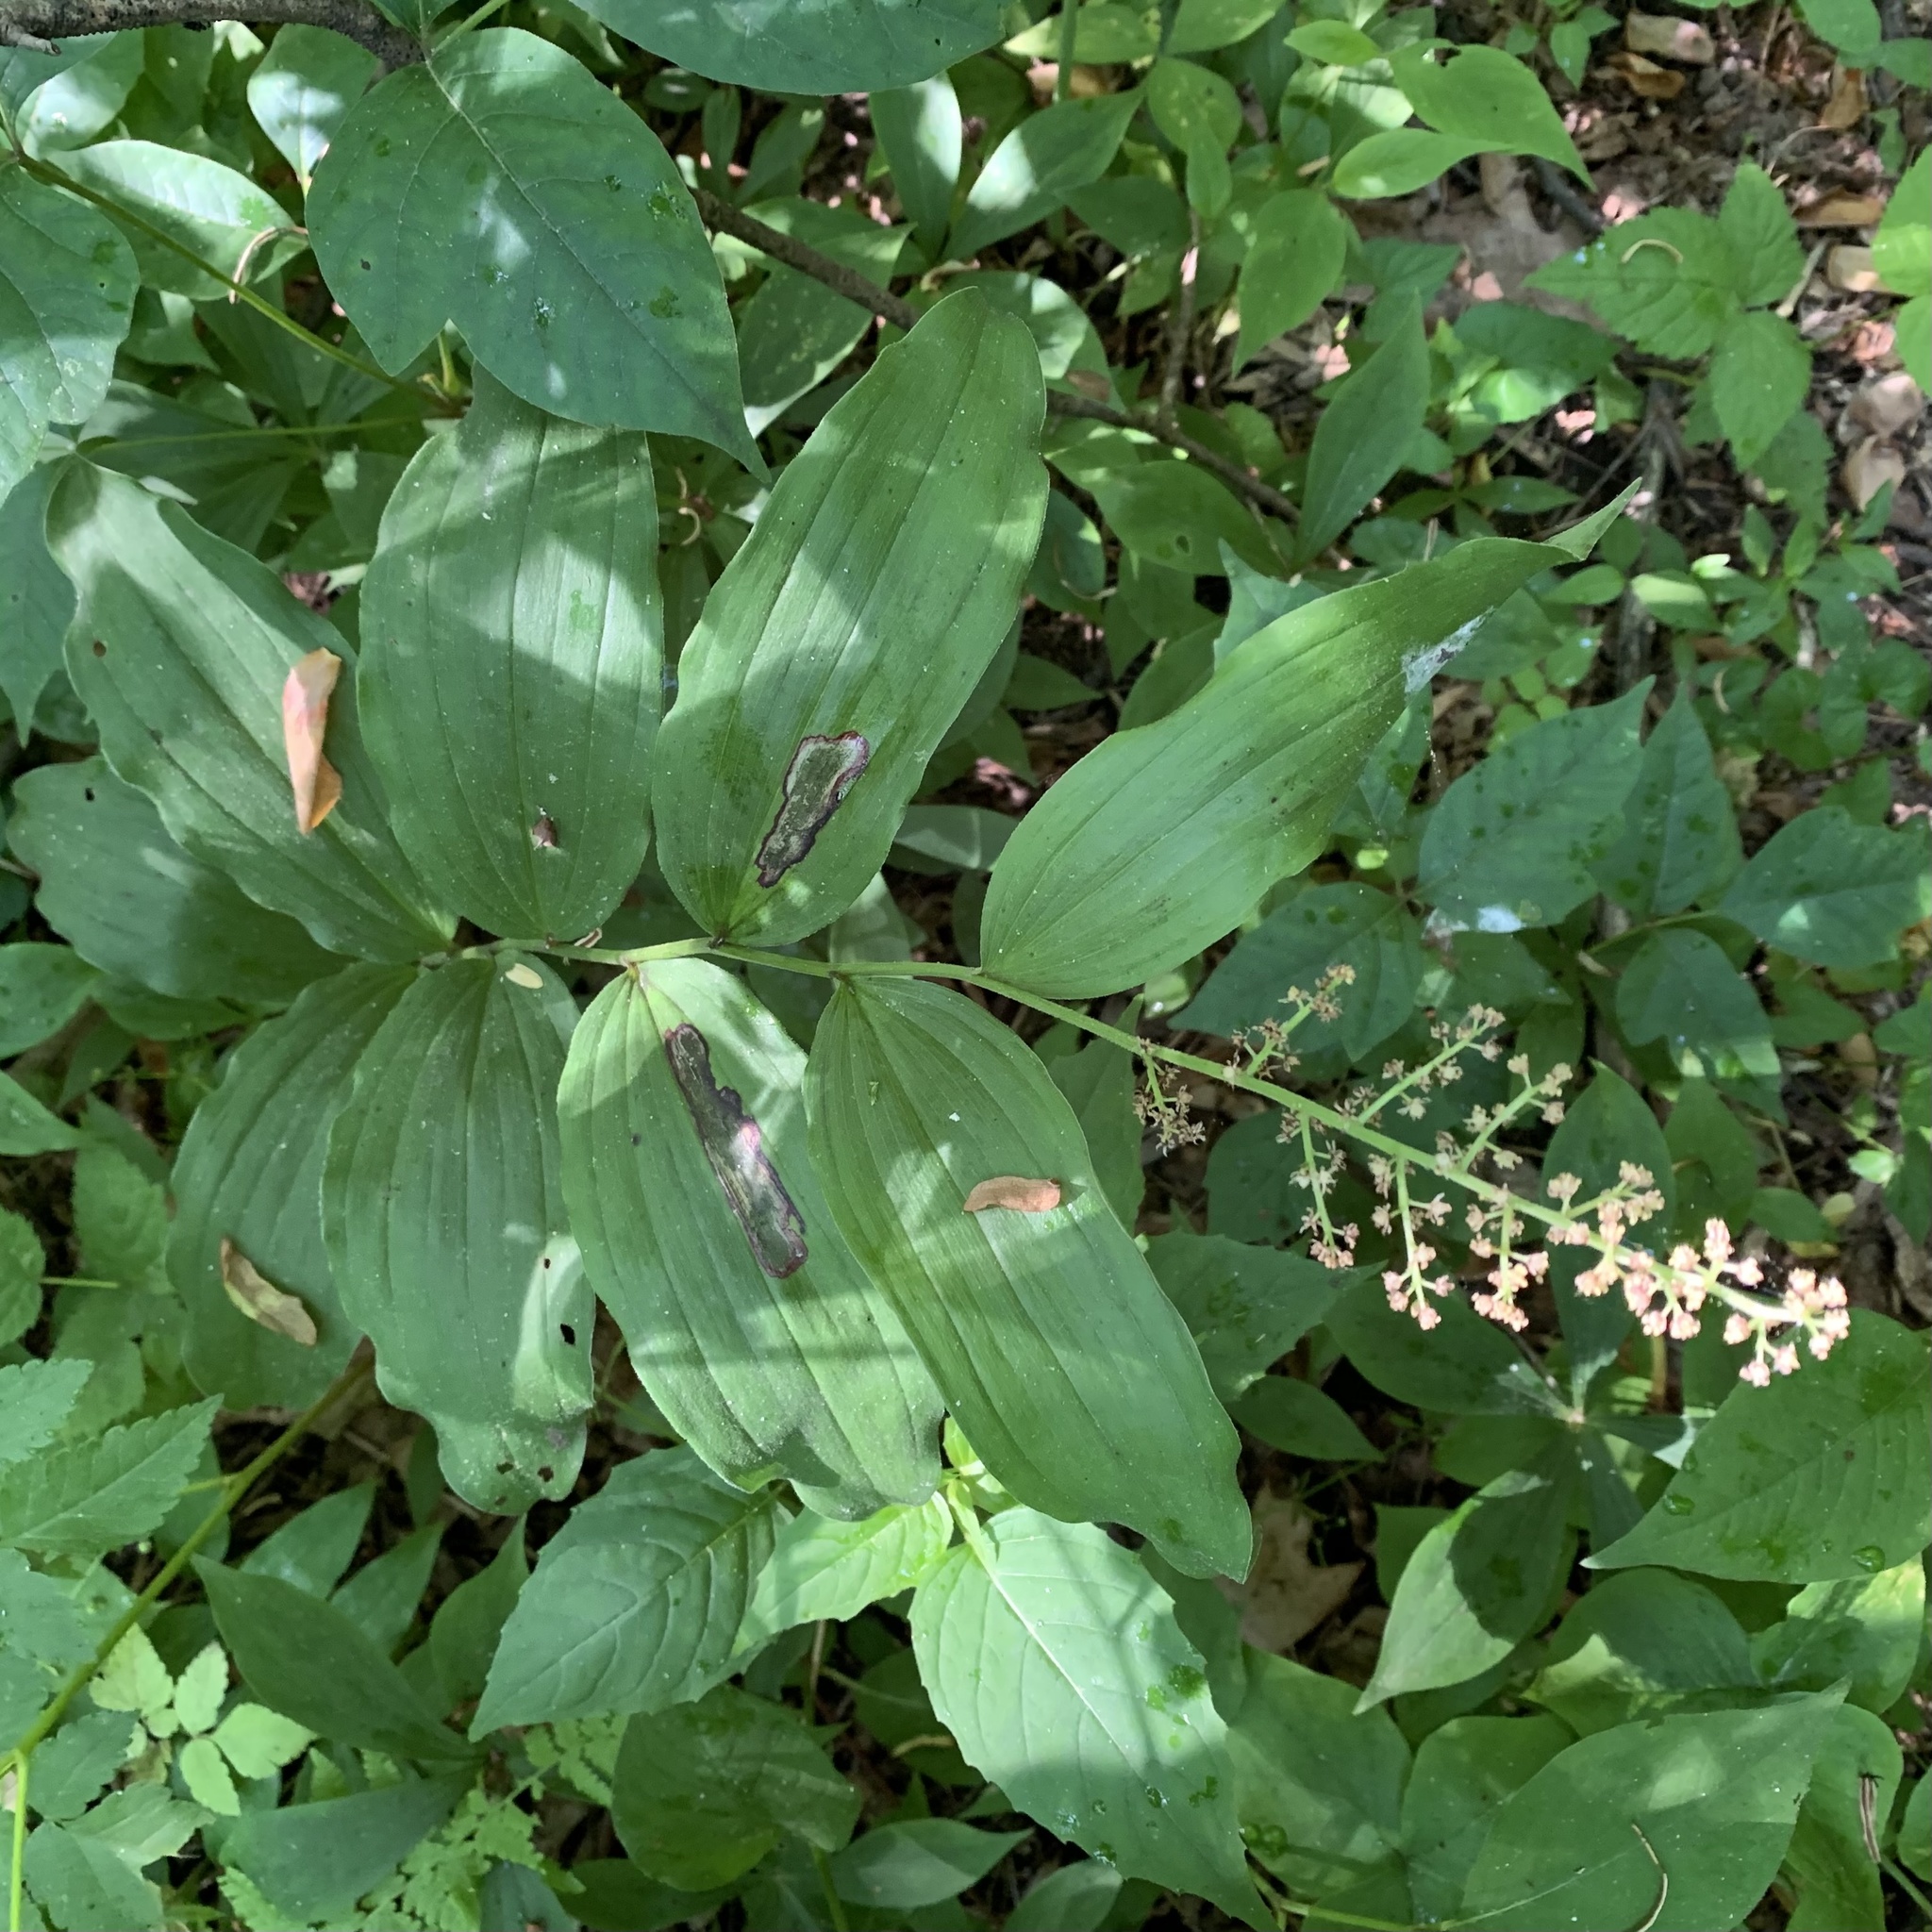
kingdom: Plantae
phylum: Tracheophyta
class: Liliopsida
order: Asparagales
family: Asparagaceae
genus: Maianthemum
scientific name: Maianthemum racemosum
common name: False spikenard
